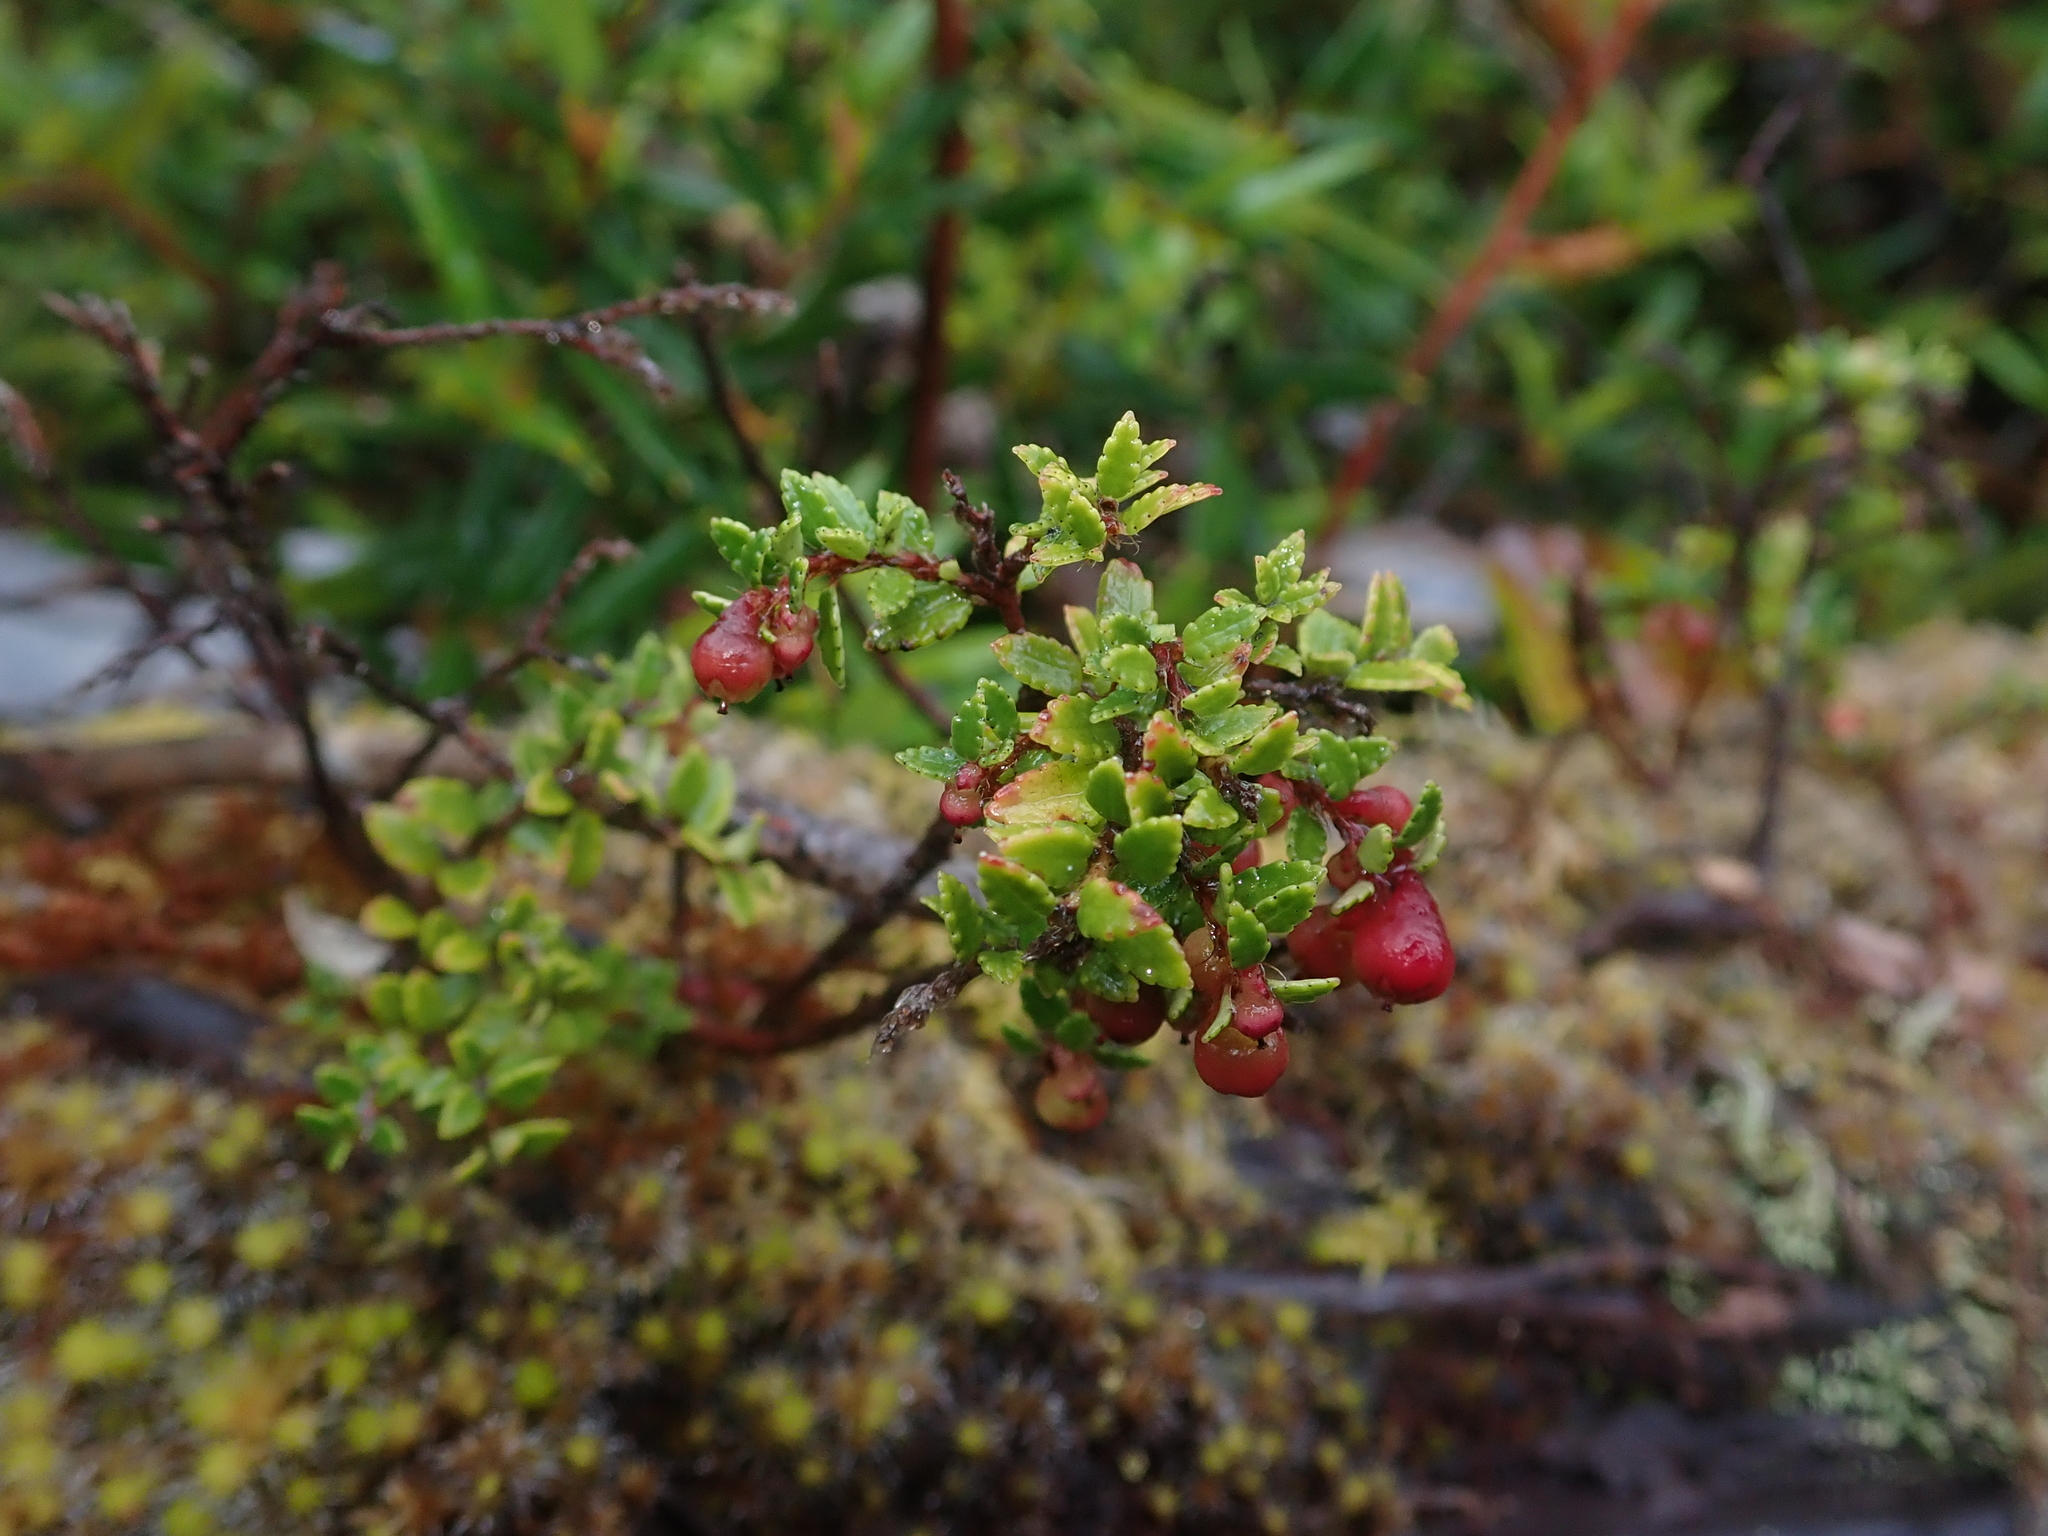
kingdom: Plantae
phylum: Tracheophyta
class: Magnoliopsida
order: Ericales
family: Ericaceae
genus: Gaultheria
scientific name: Gaultheria antarctica
